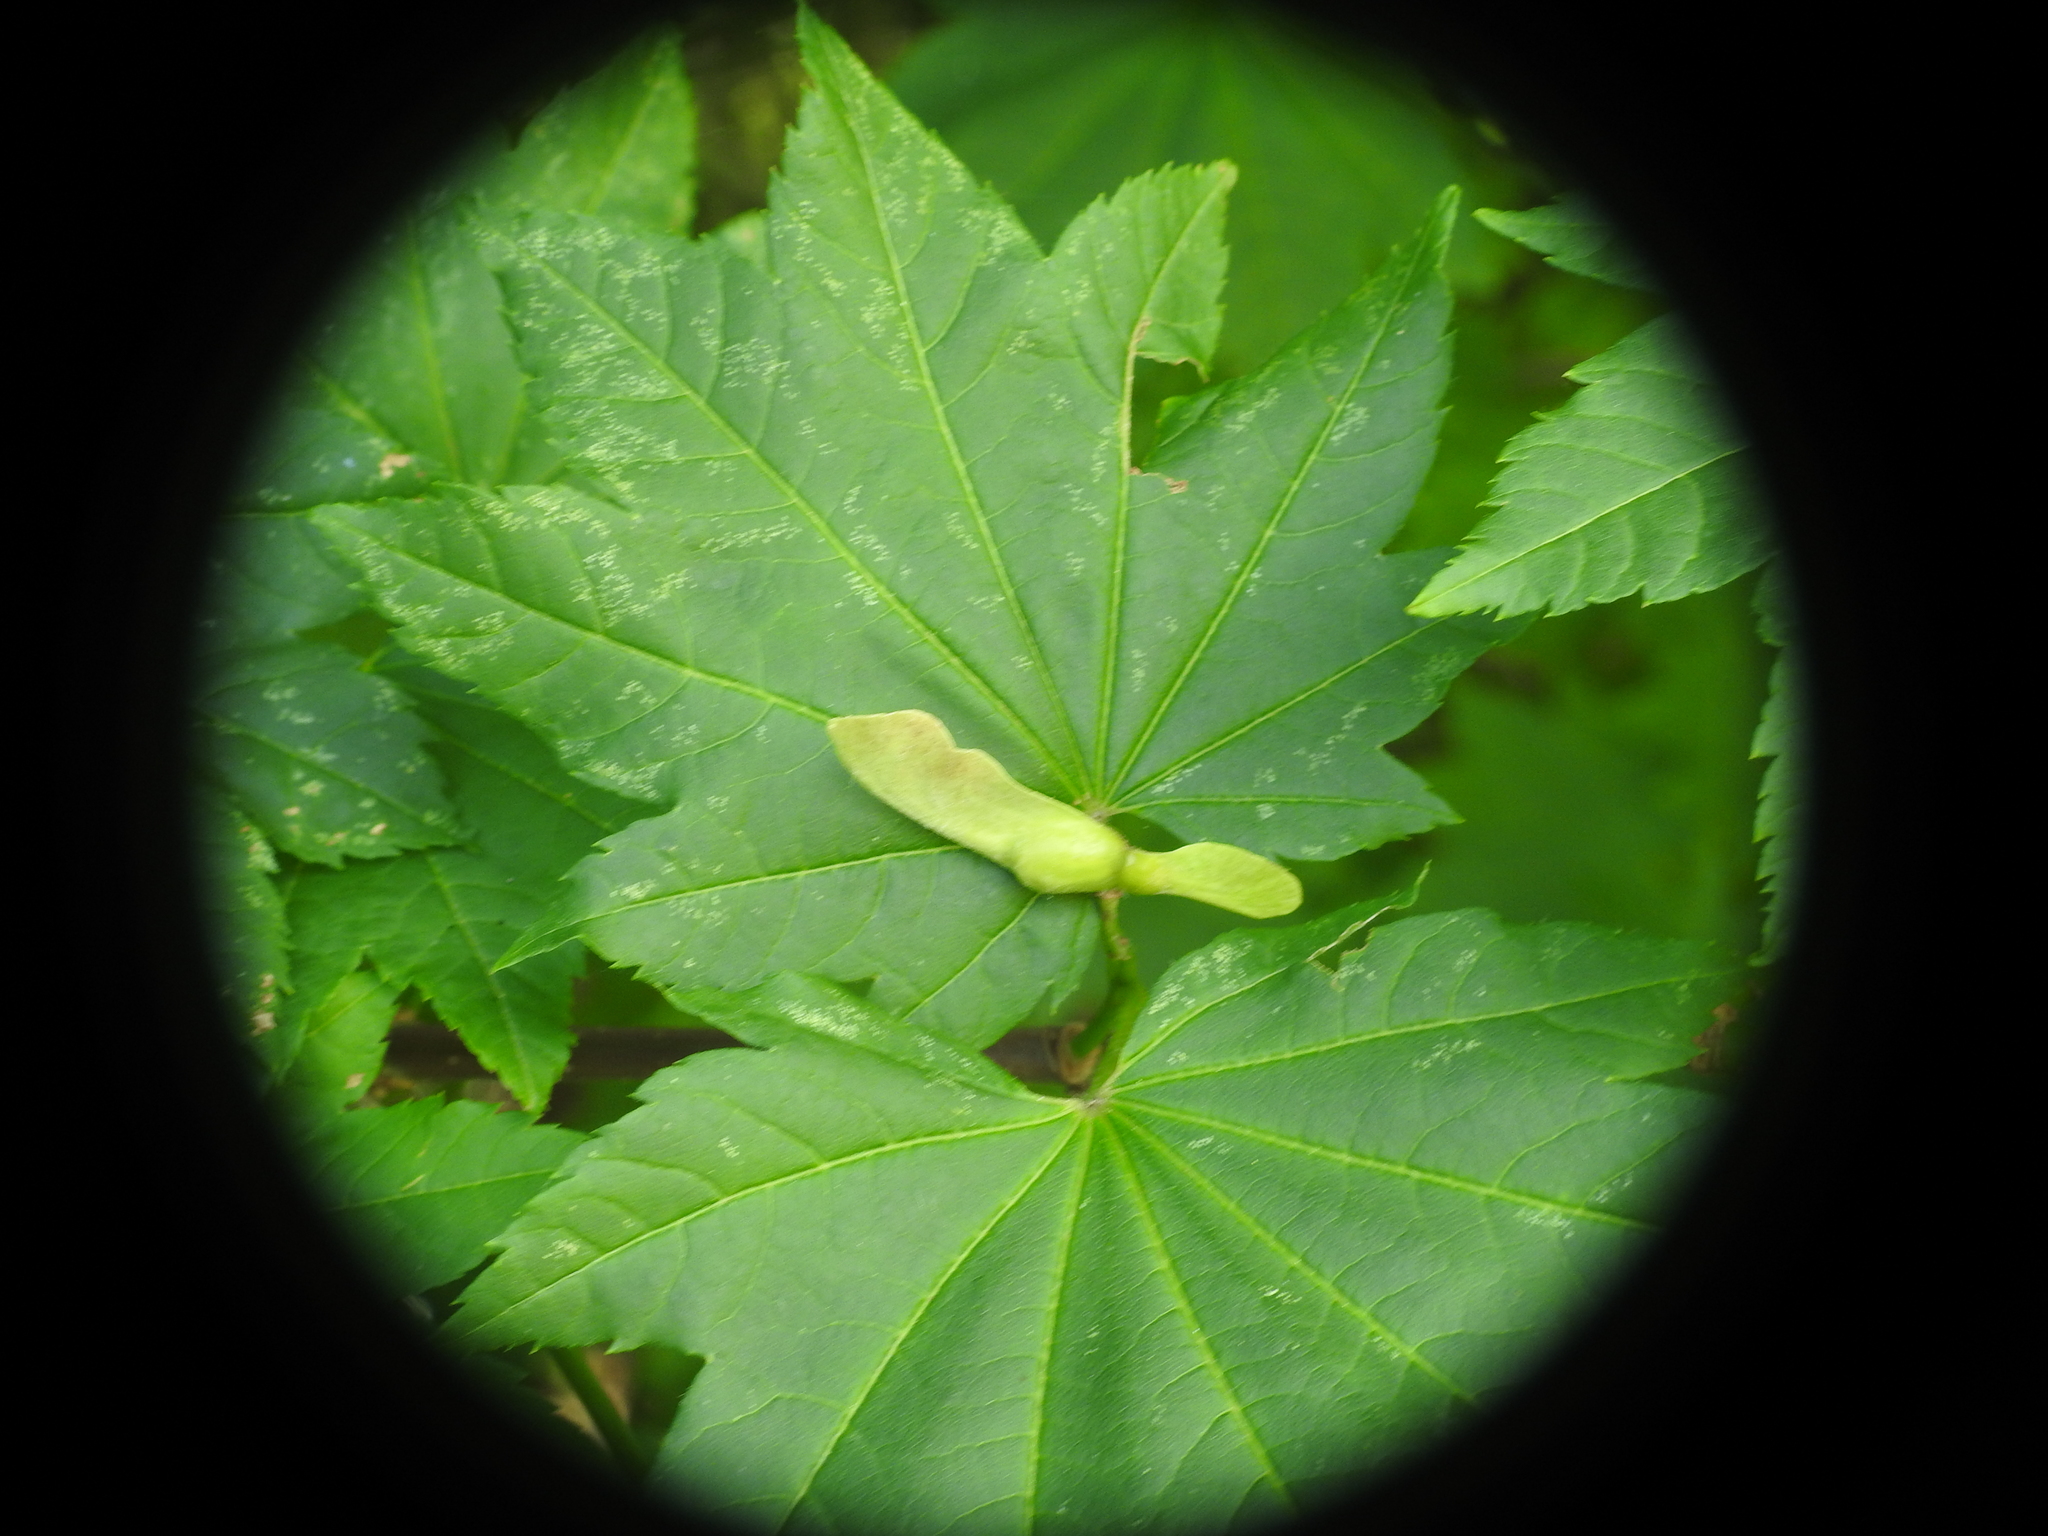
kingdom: Plantae
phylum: Tracheophyta
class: Magnoliopsida
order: Sapindales
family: Sapindaceae
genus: Acer
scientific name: Acer circinatum
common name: Vine maple
